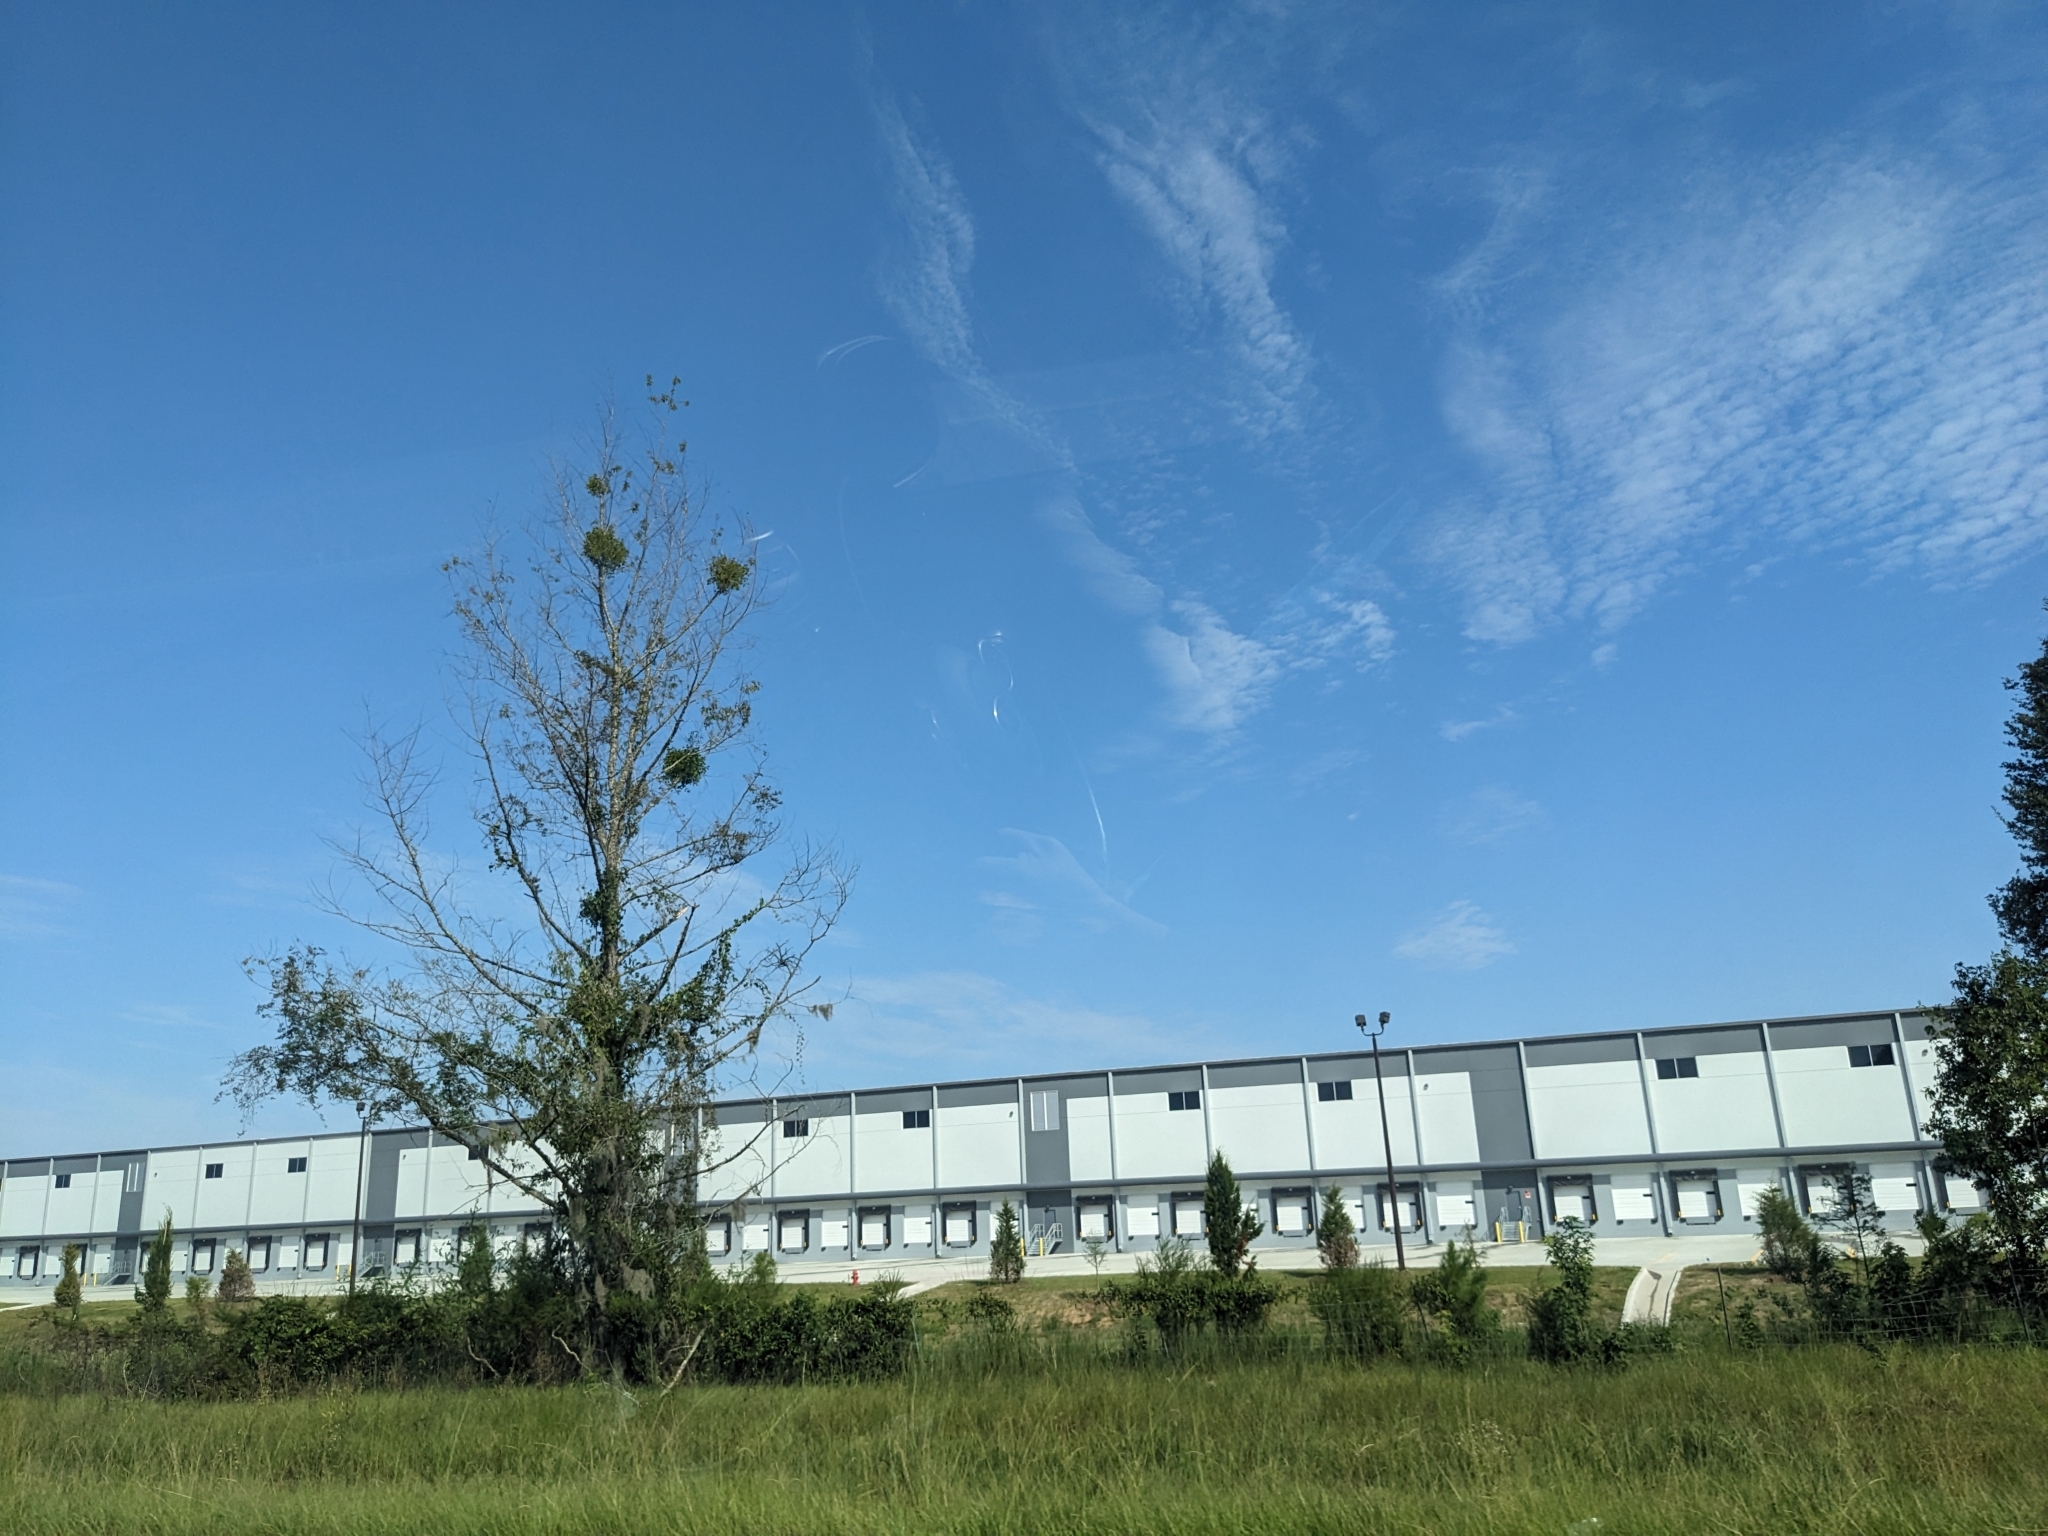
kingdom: Plantae
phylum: Tracheophyta
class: Magnoliopsida
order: Santalales
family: Viscaceae
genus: Phoradendron
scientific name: Phoradendron leucarpum
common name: Pacific mistletoe
